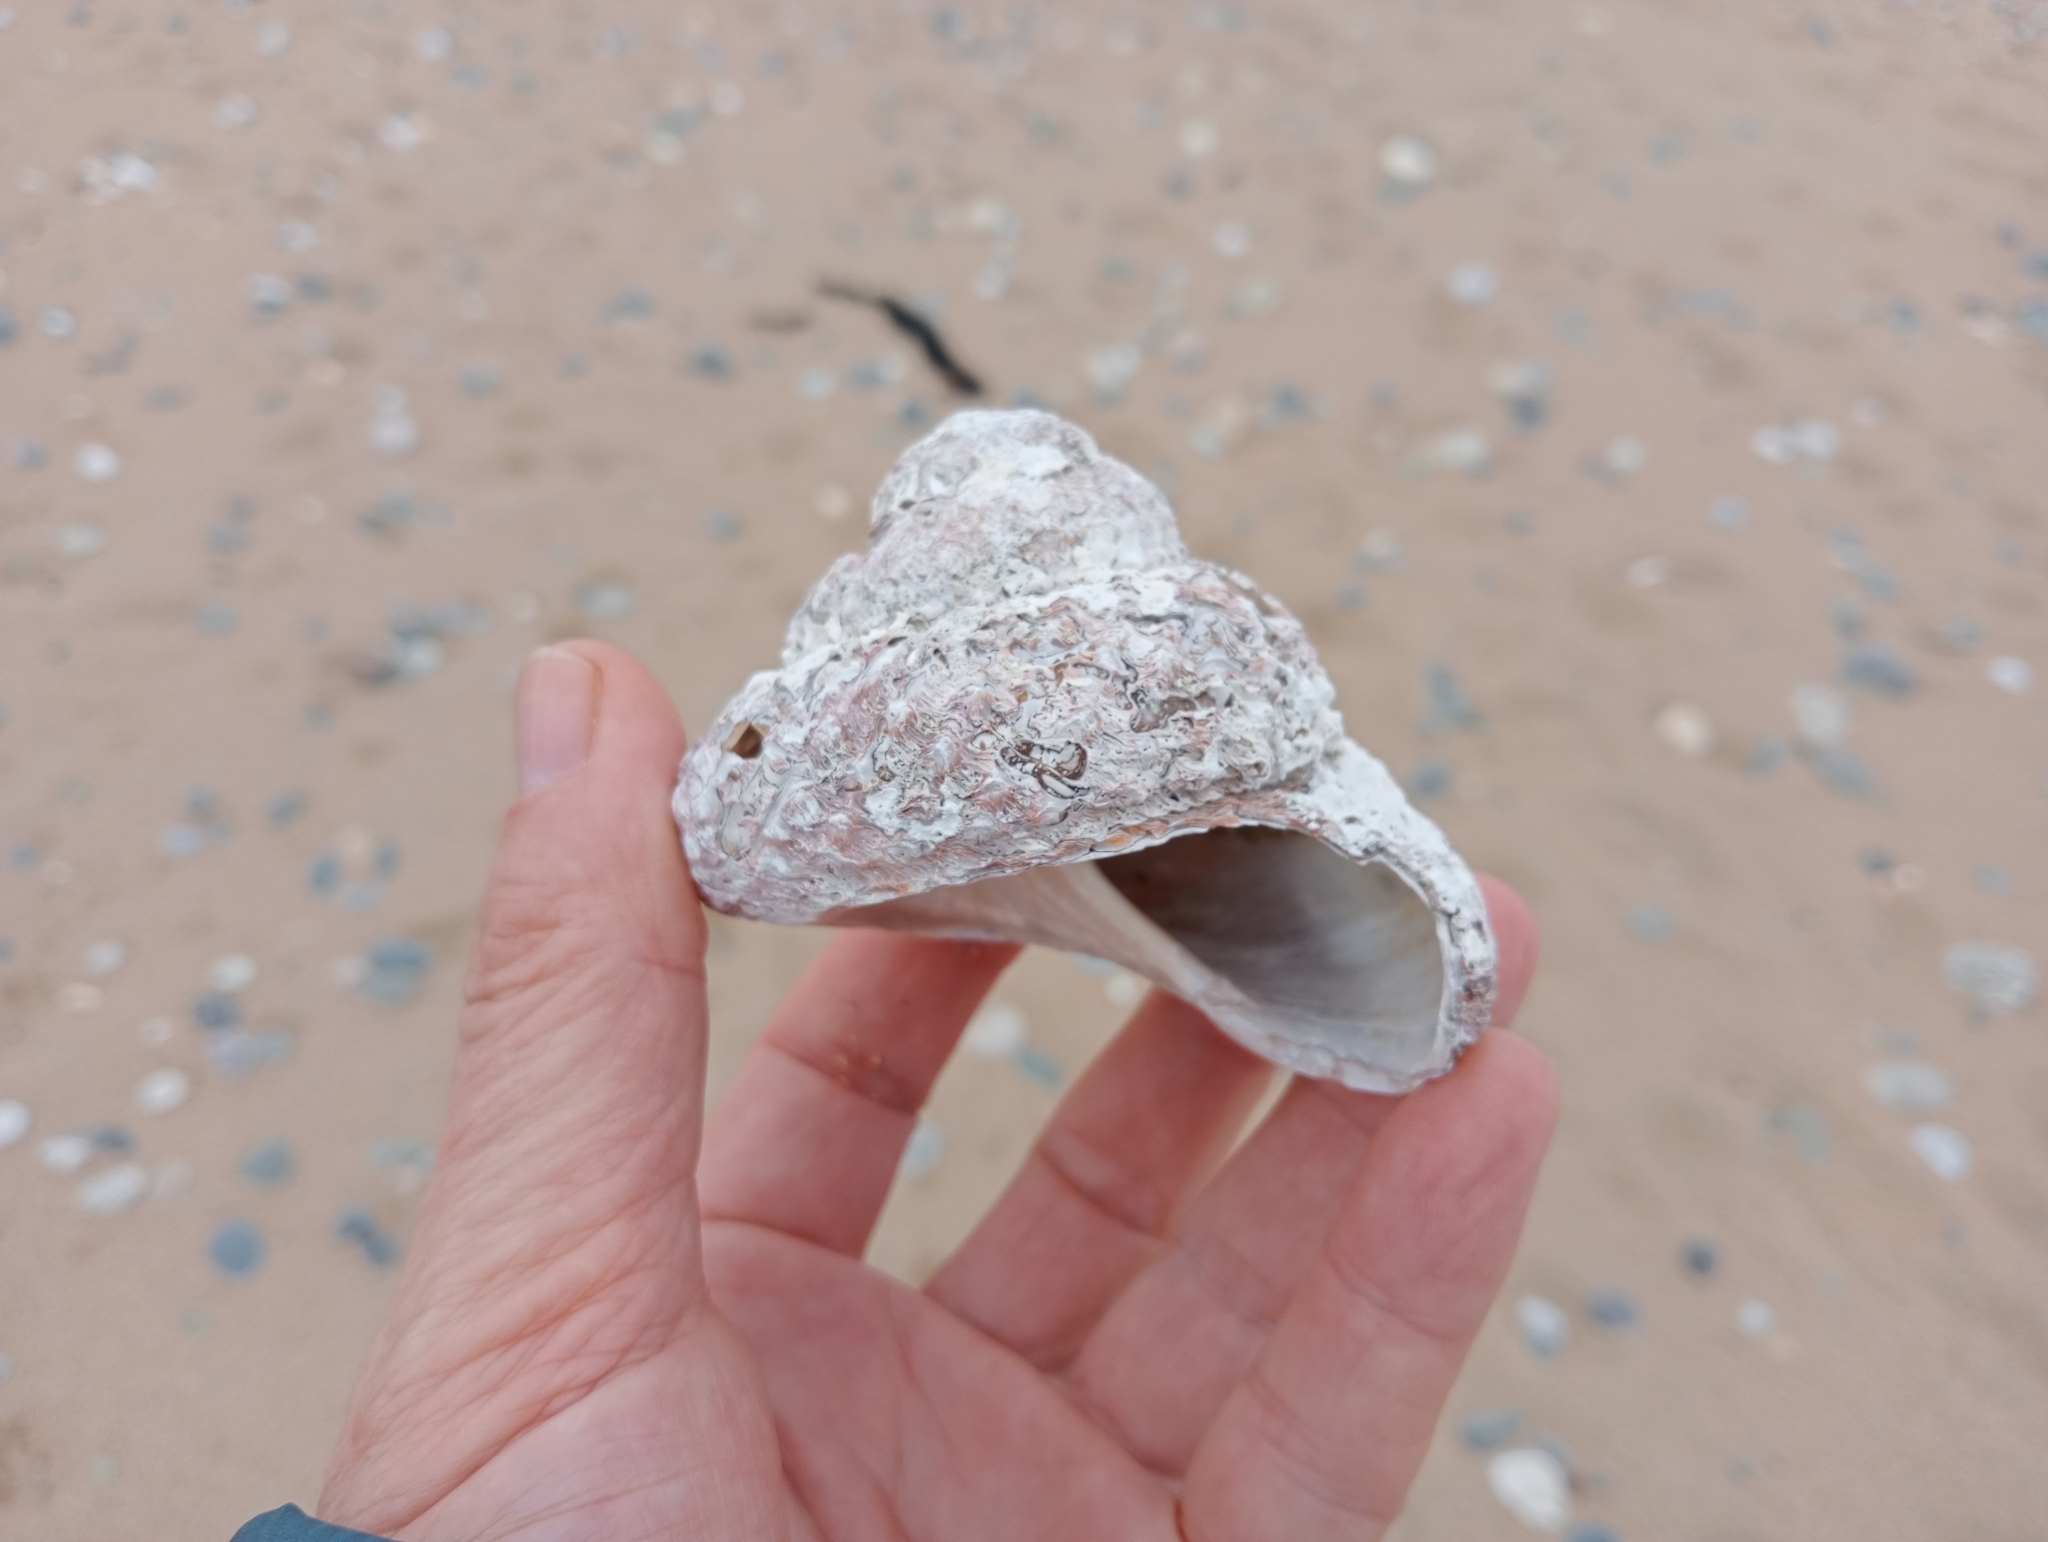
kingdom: Animalia
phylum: Mollusca
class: Gastropoda
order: Trochida
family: Turbinidae
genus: Cookia
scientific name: Cookia sulcata
